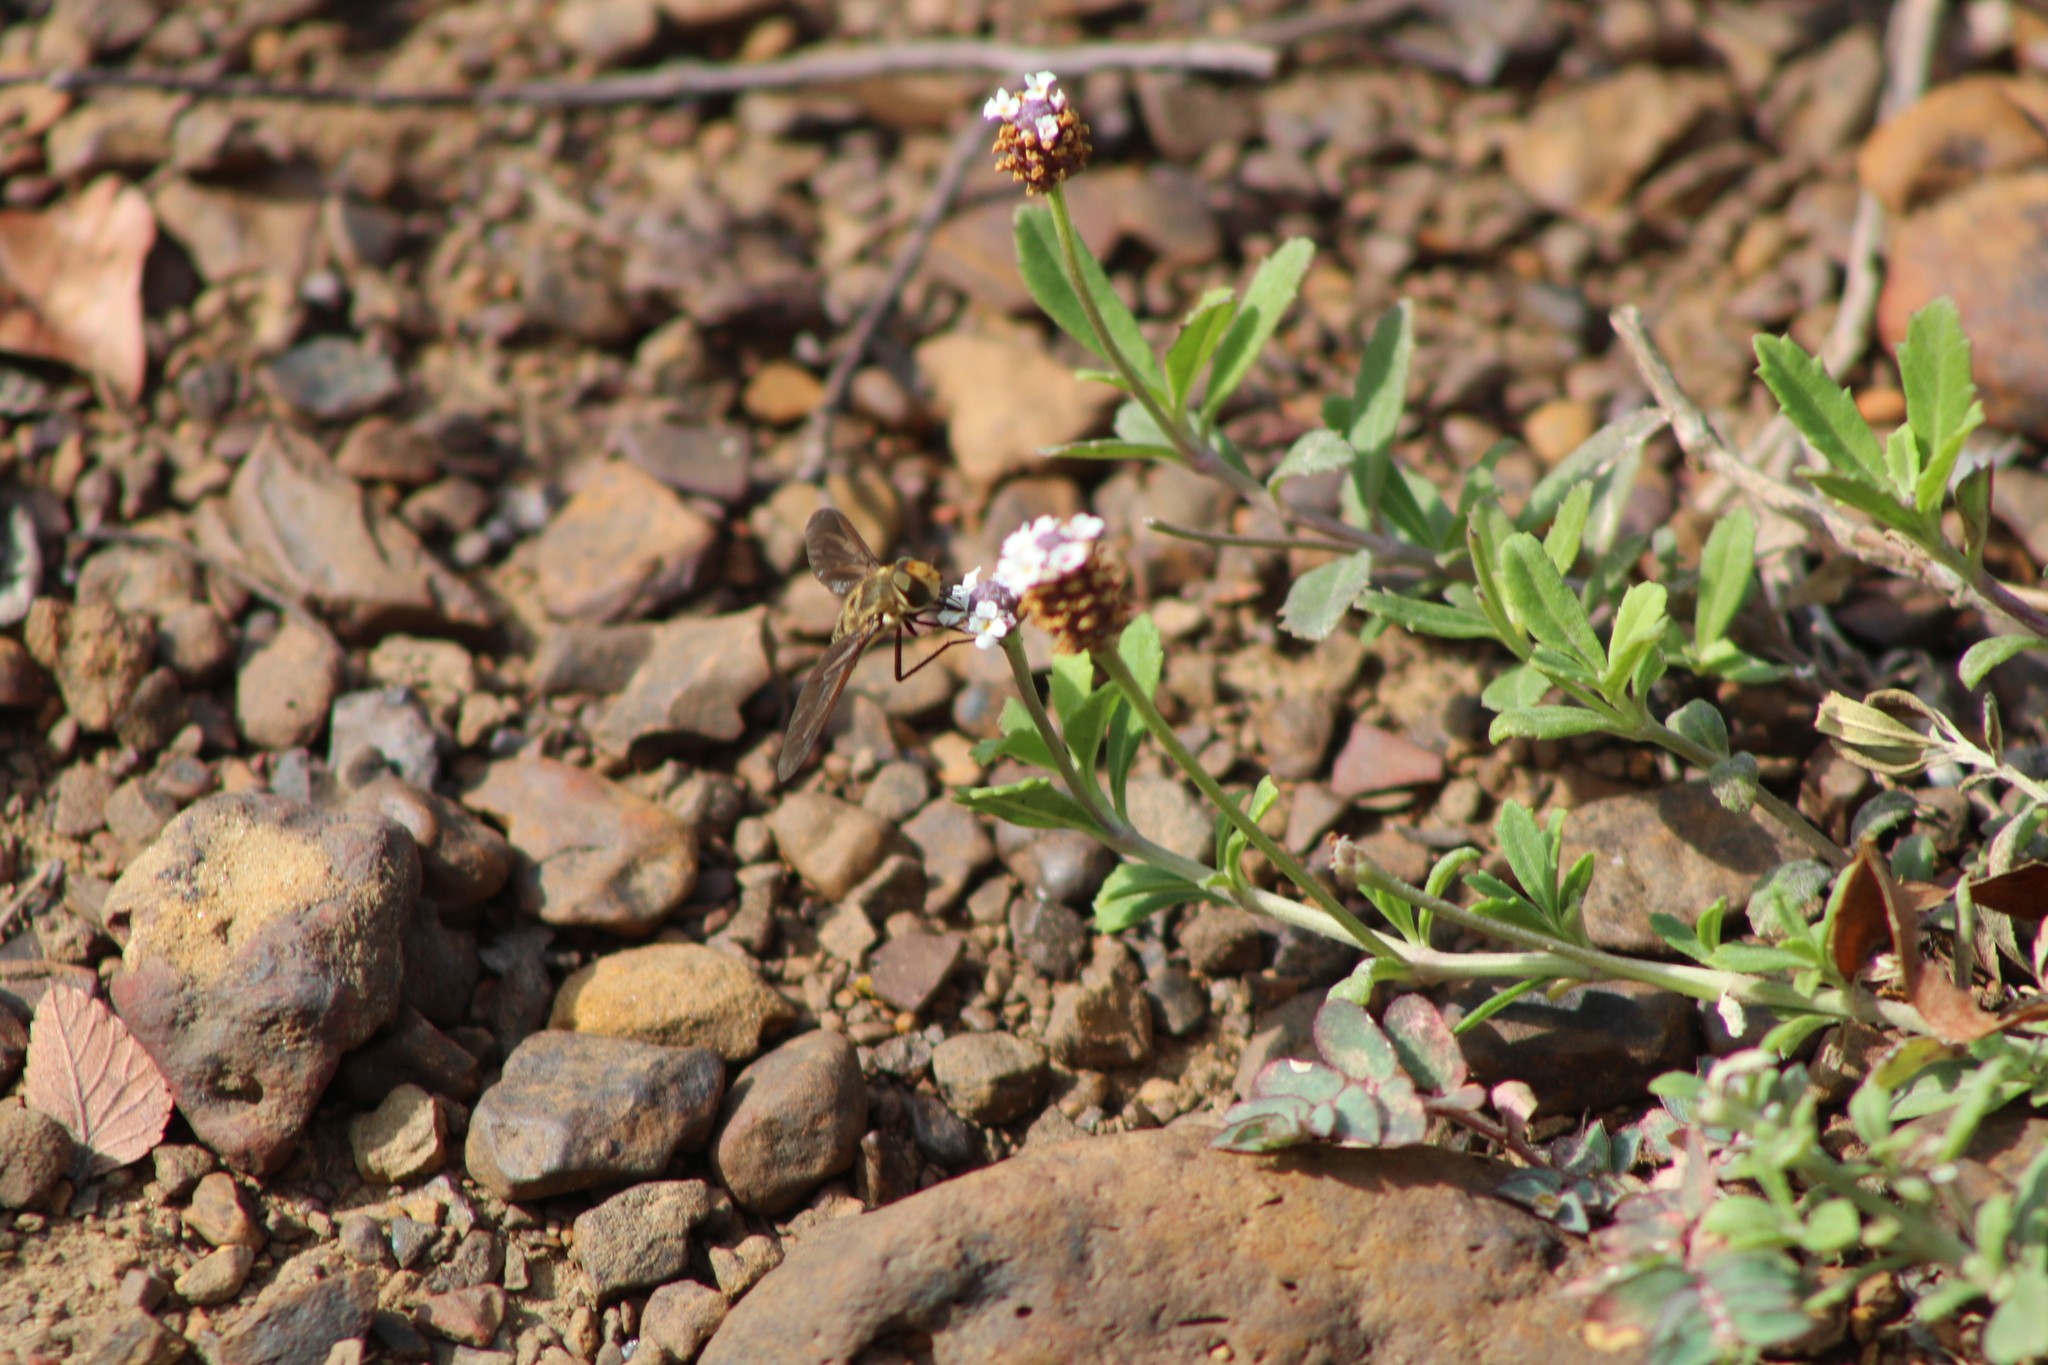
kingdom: Animalia
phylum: Arthropoda
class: Insecta
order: Diptera
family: Bombyliidae
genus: Poecilanthrax
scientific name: Poecilanthrax lucifer
